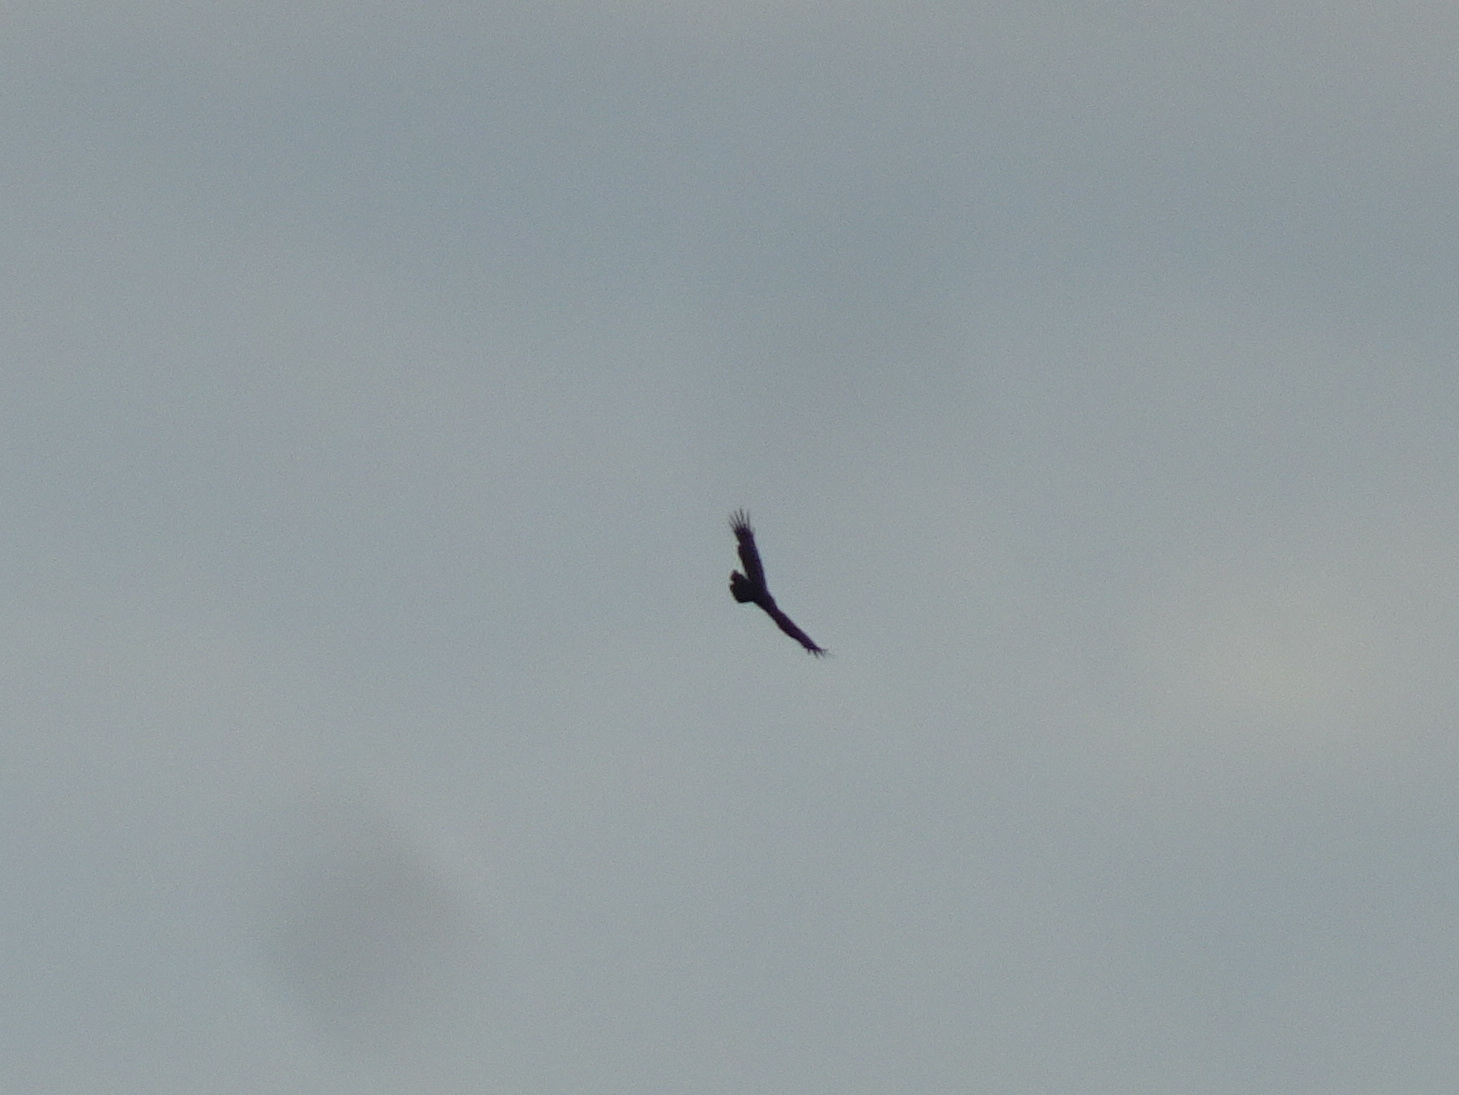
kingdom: Animalia
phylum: Chordata
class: Aves
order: Accipitriformes
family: Cathartidae
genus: Cathartes
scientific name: Cathartes aura
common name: Turkey vulture
